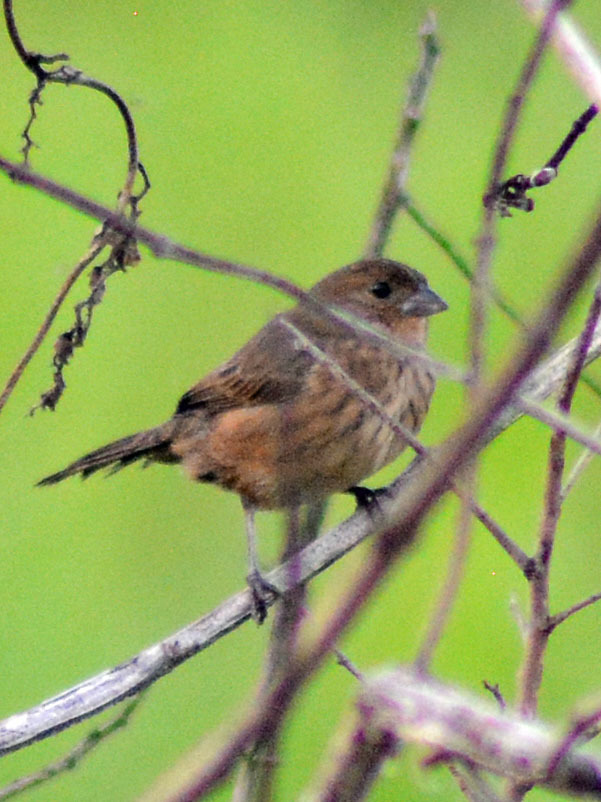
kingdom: Animalia
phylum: Chordata
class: Aves
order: Passeriformes
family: Thraupidae
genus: Volatinia
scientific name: Volatinia jacarina
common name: Blue-black grassquit
